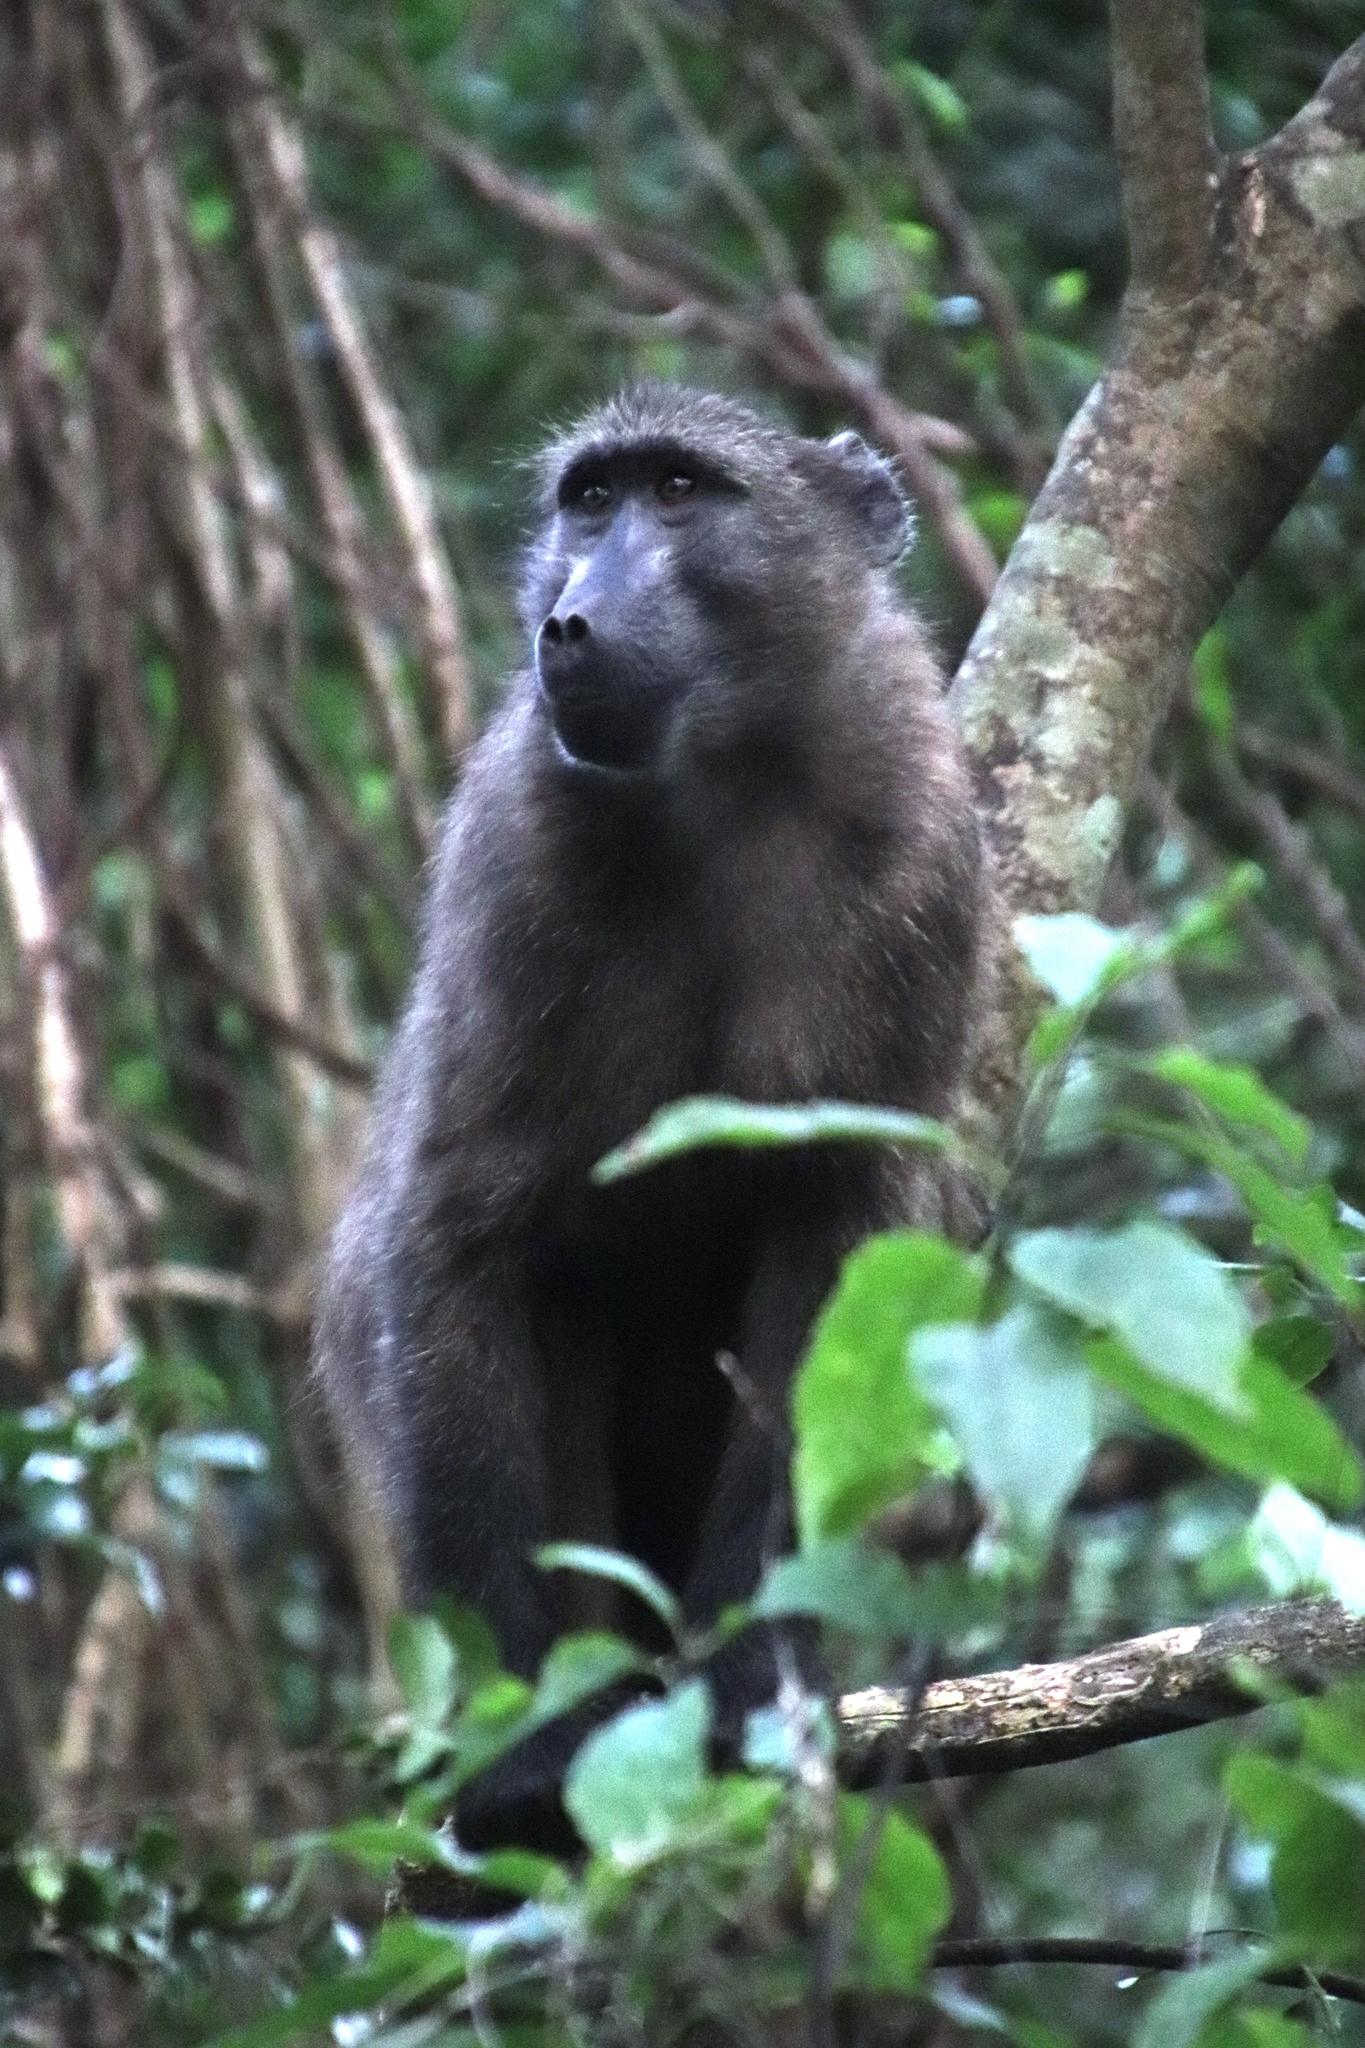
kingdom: Animalia
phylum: Chordata
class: Mammalia
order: Primates
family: Cercopithecidae
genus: Papio
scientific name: Papio ursinus
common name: Chacma baboon
